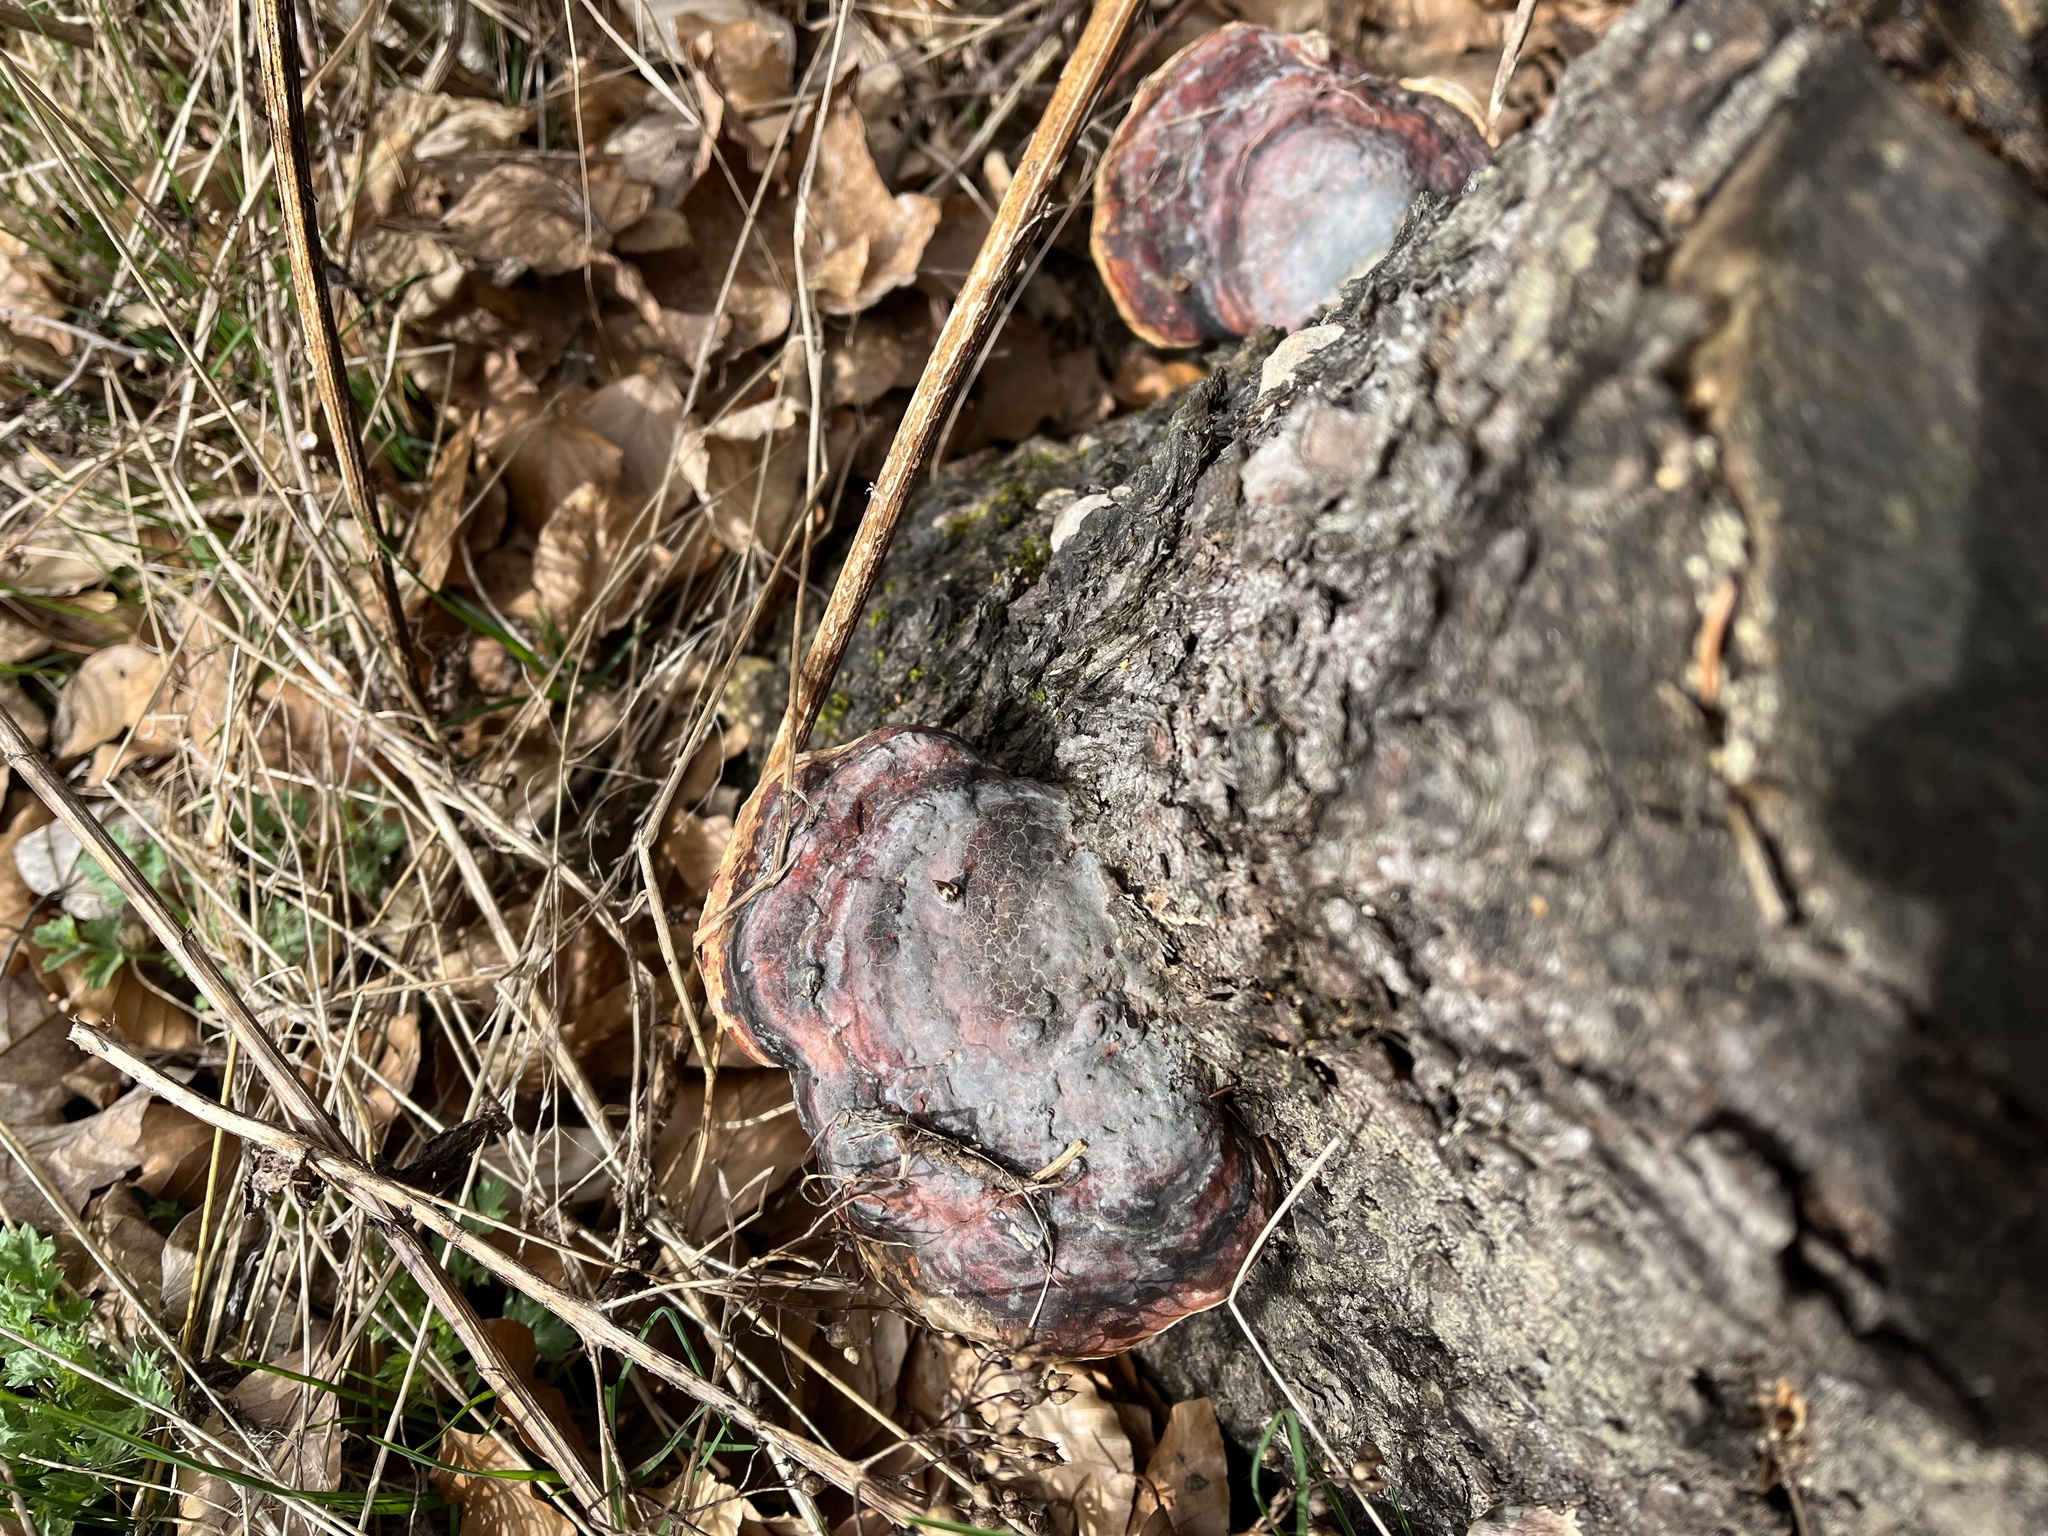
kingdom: Fungi
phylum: Basidiomycota
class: Agaricomycetes
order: Polyporales
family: Fomitopsidaceae
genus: Fomitopsis
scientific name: Fomitopsis pinicola
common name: Red-belted bracket
